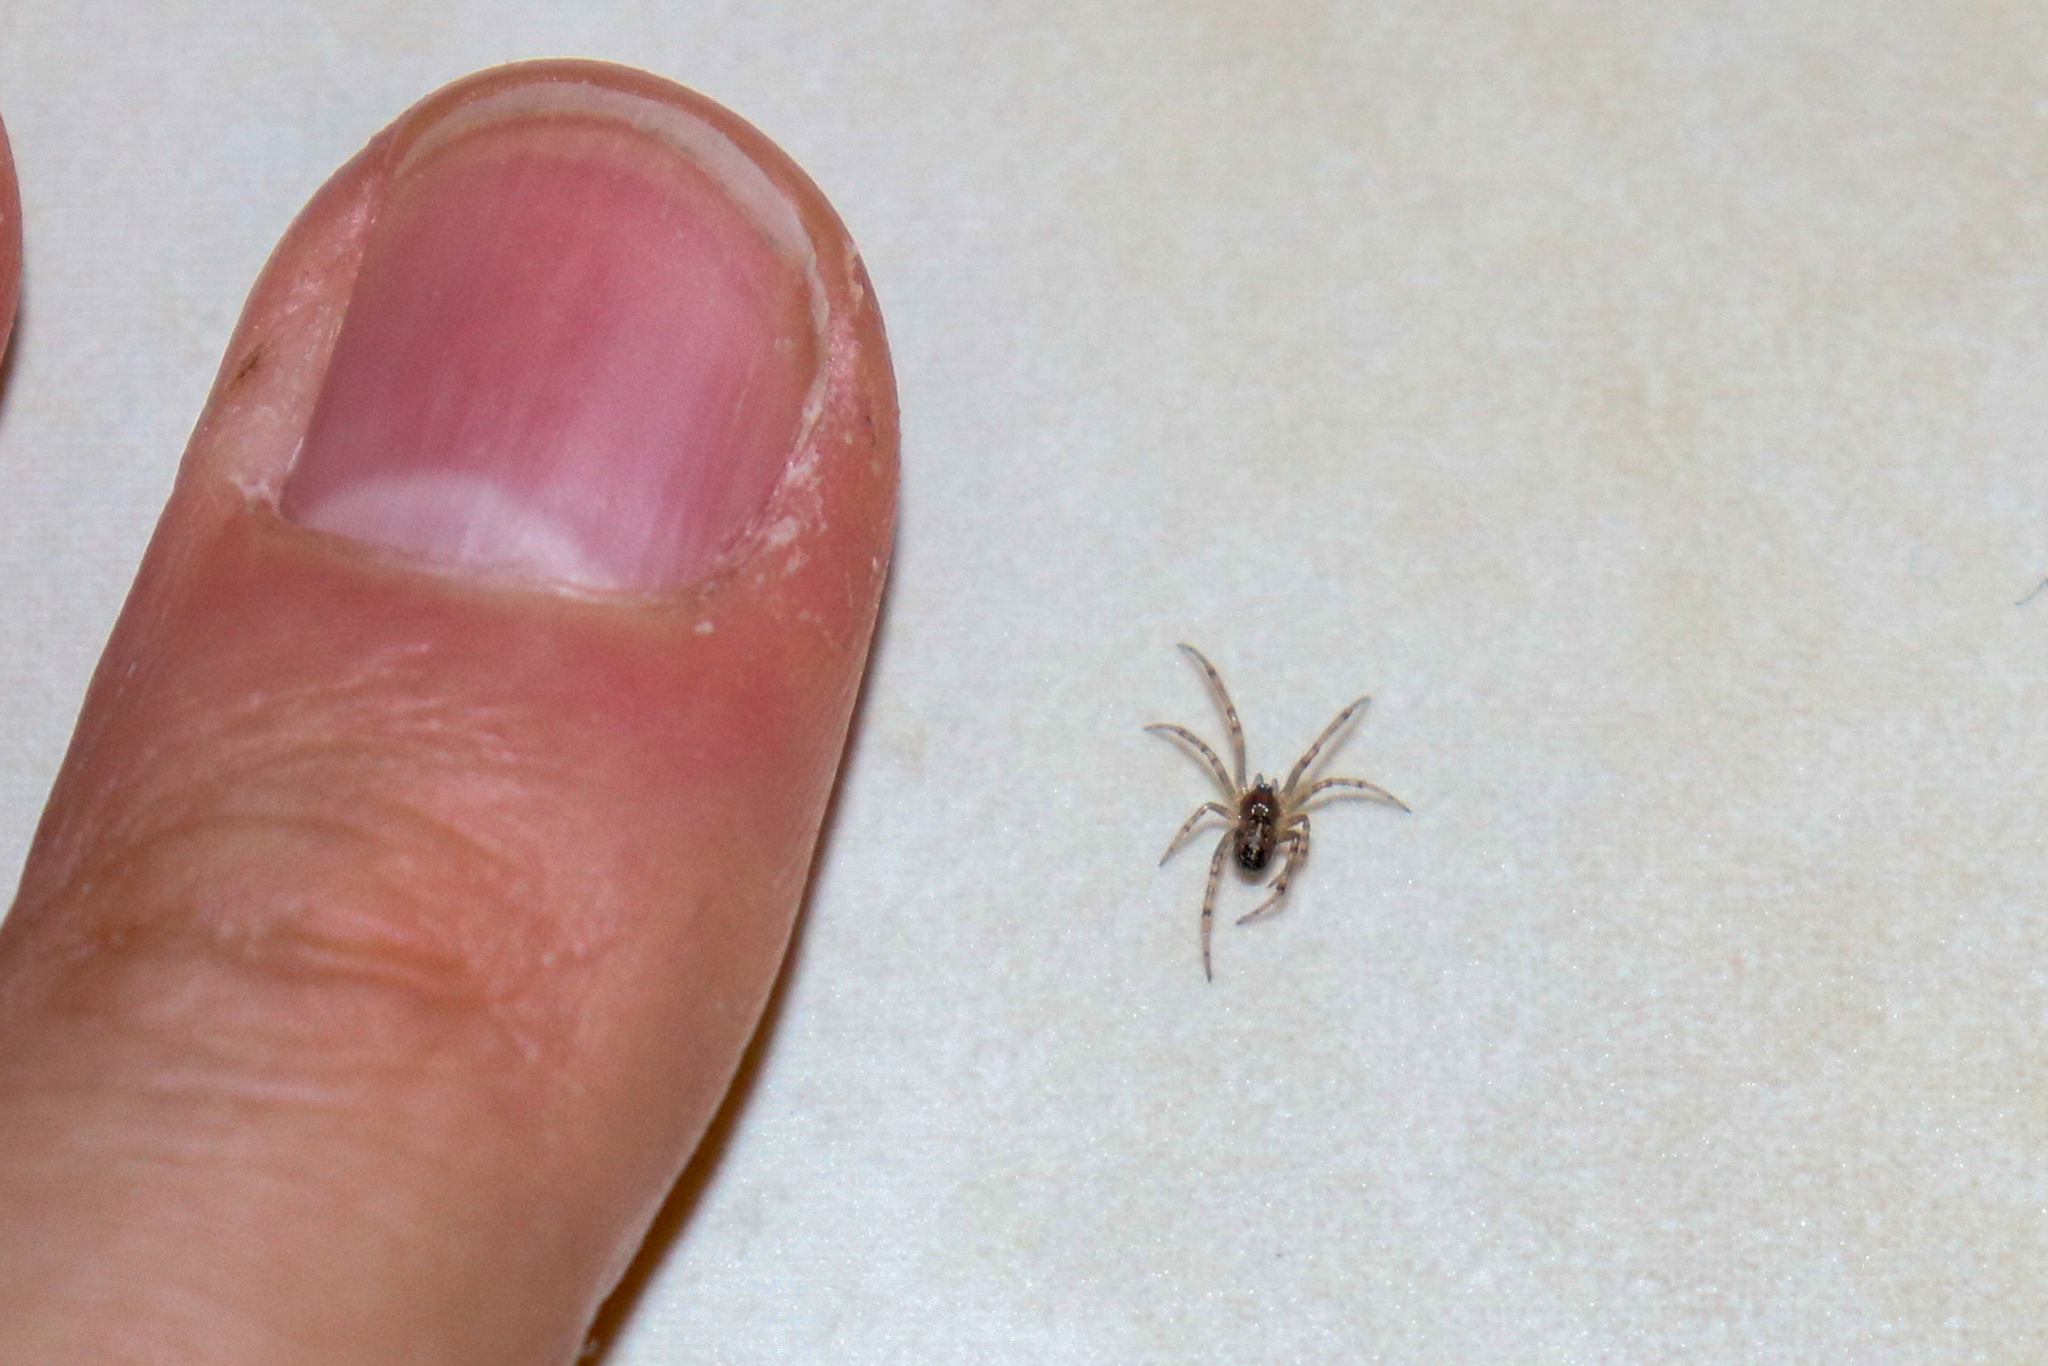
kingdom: Animalia
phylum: Arthropoda
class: Arachnida
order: Araneae
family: Theridiidae
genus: Steatoda
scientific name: Steatoda castanea
